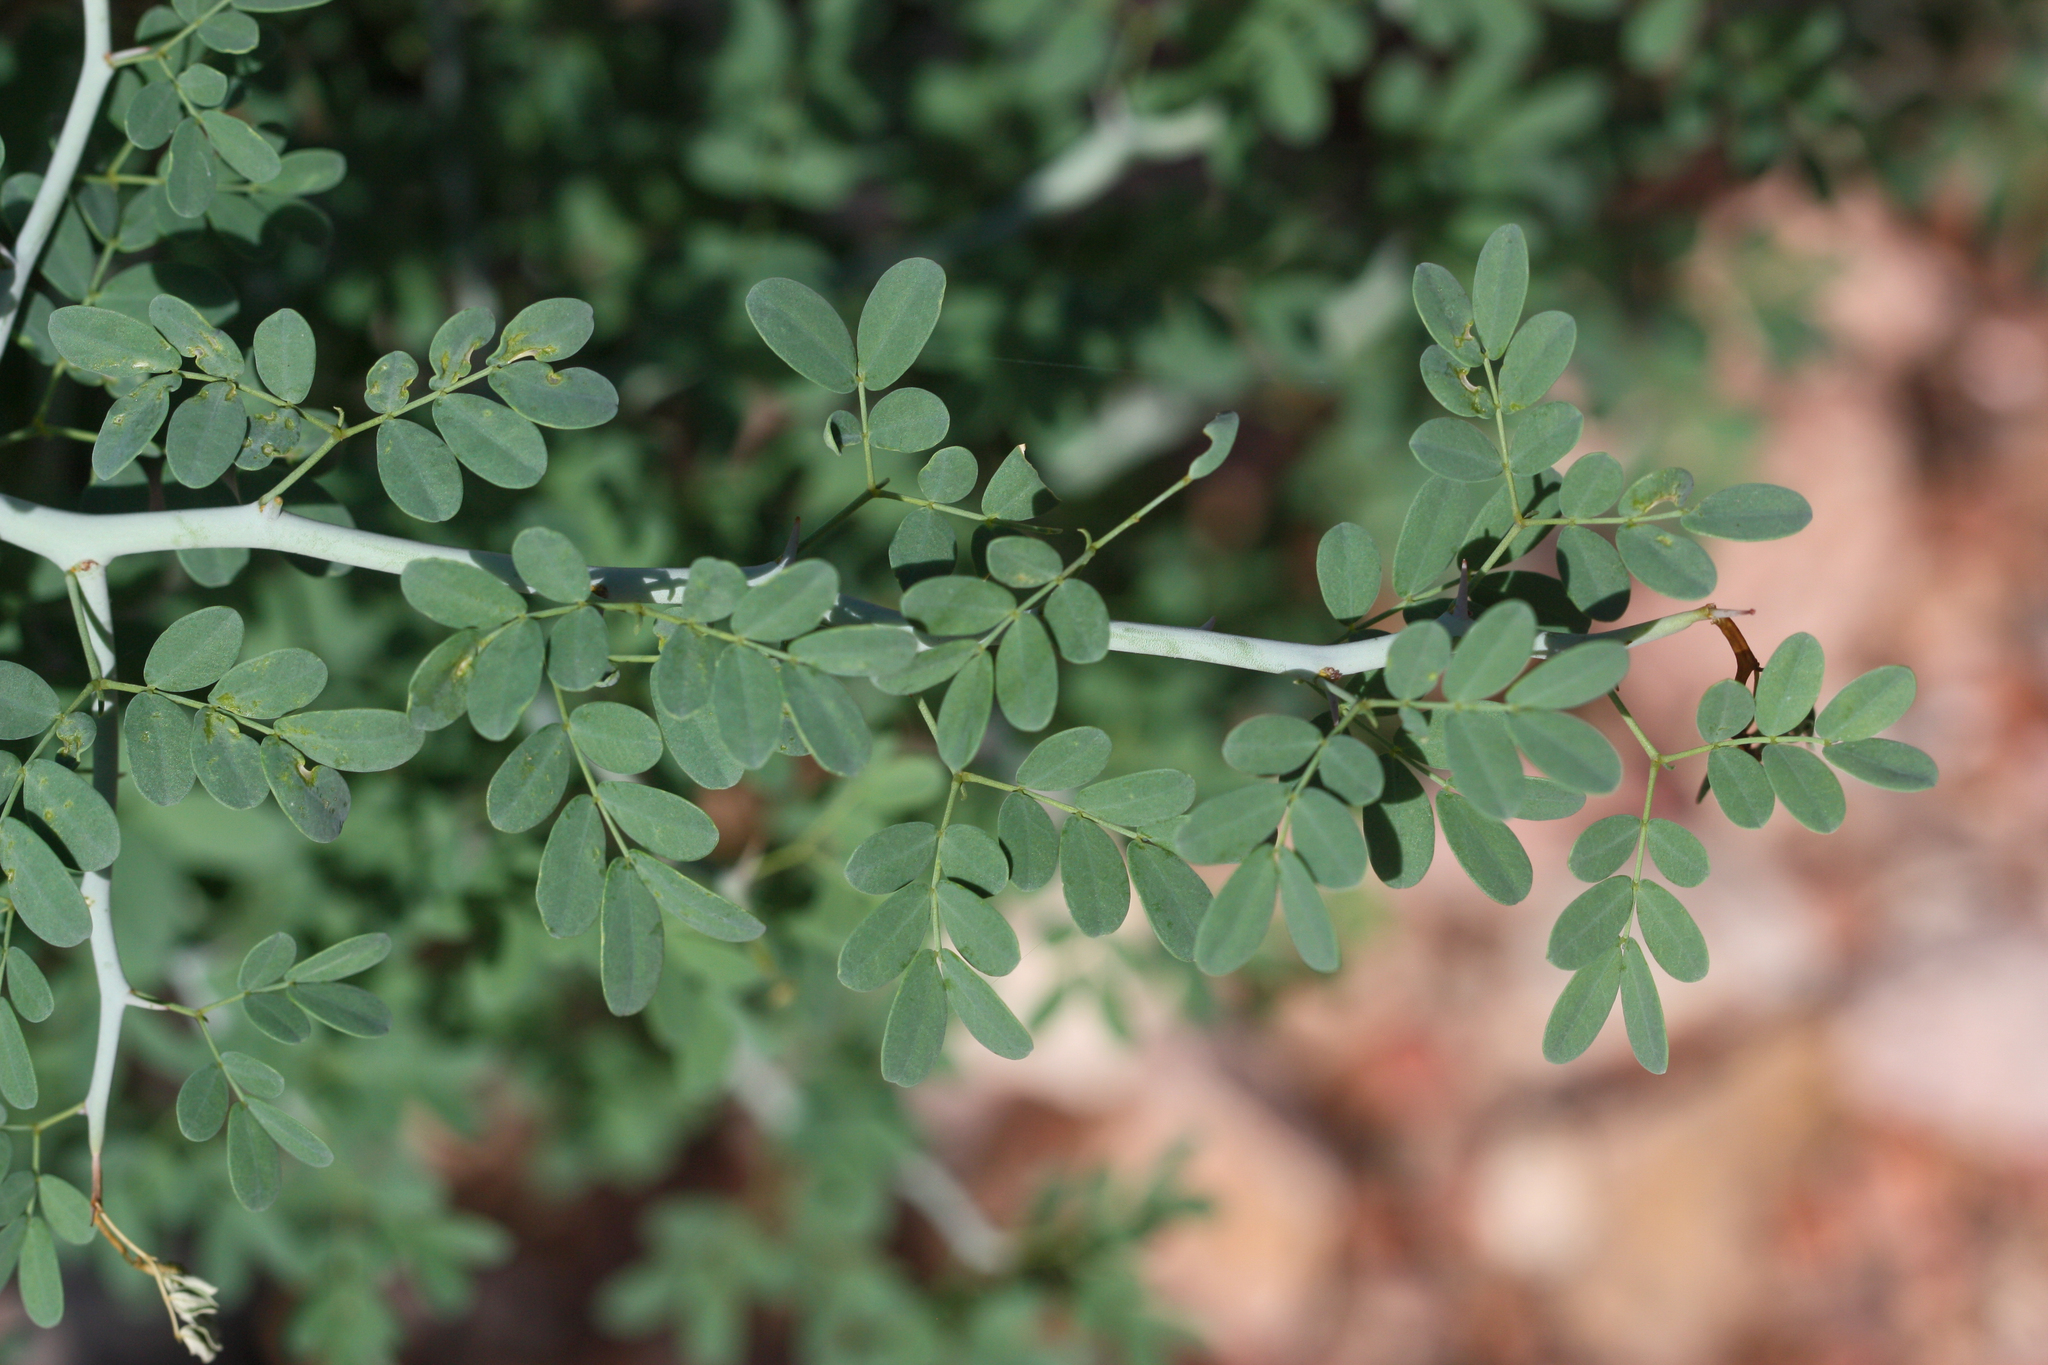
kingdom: Plantae
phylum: Tracheophyta
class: Magnoliopsida
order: Fabales
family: Fabaceae
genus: Parkinsonia
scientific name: Parkinsonia florida
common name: Blue paloverde
